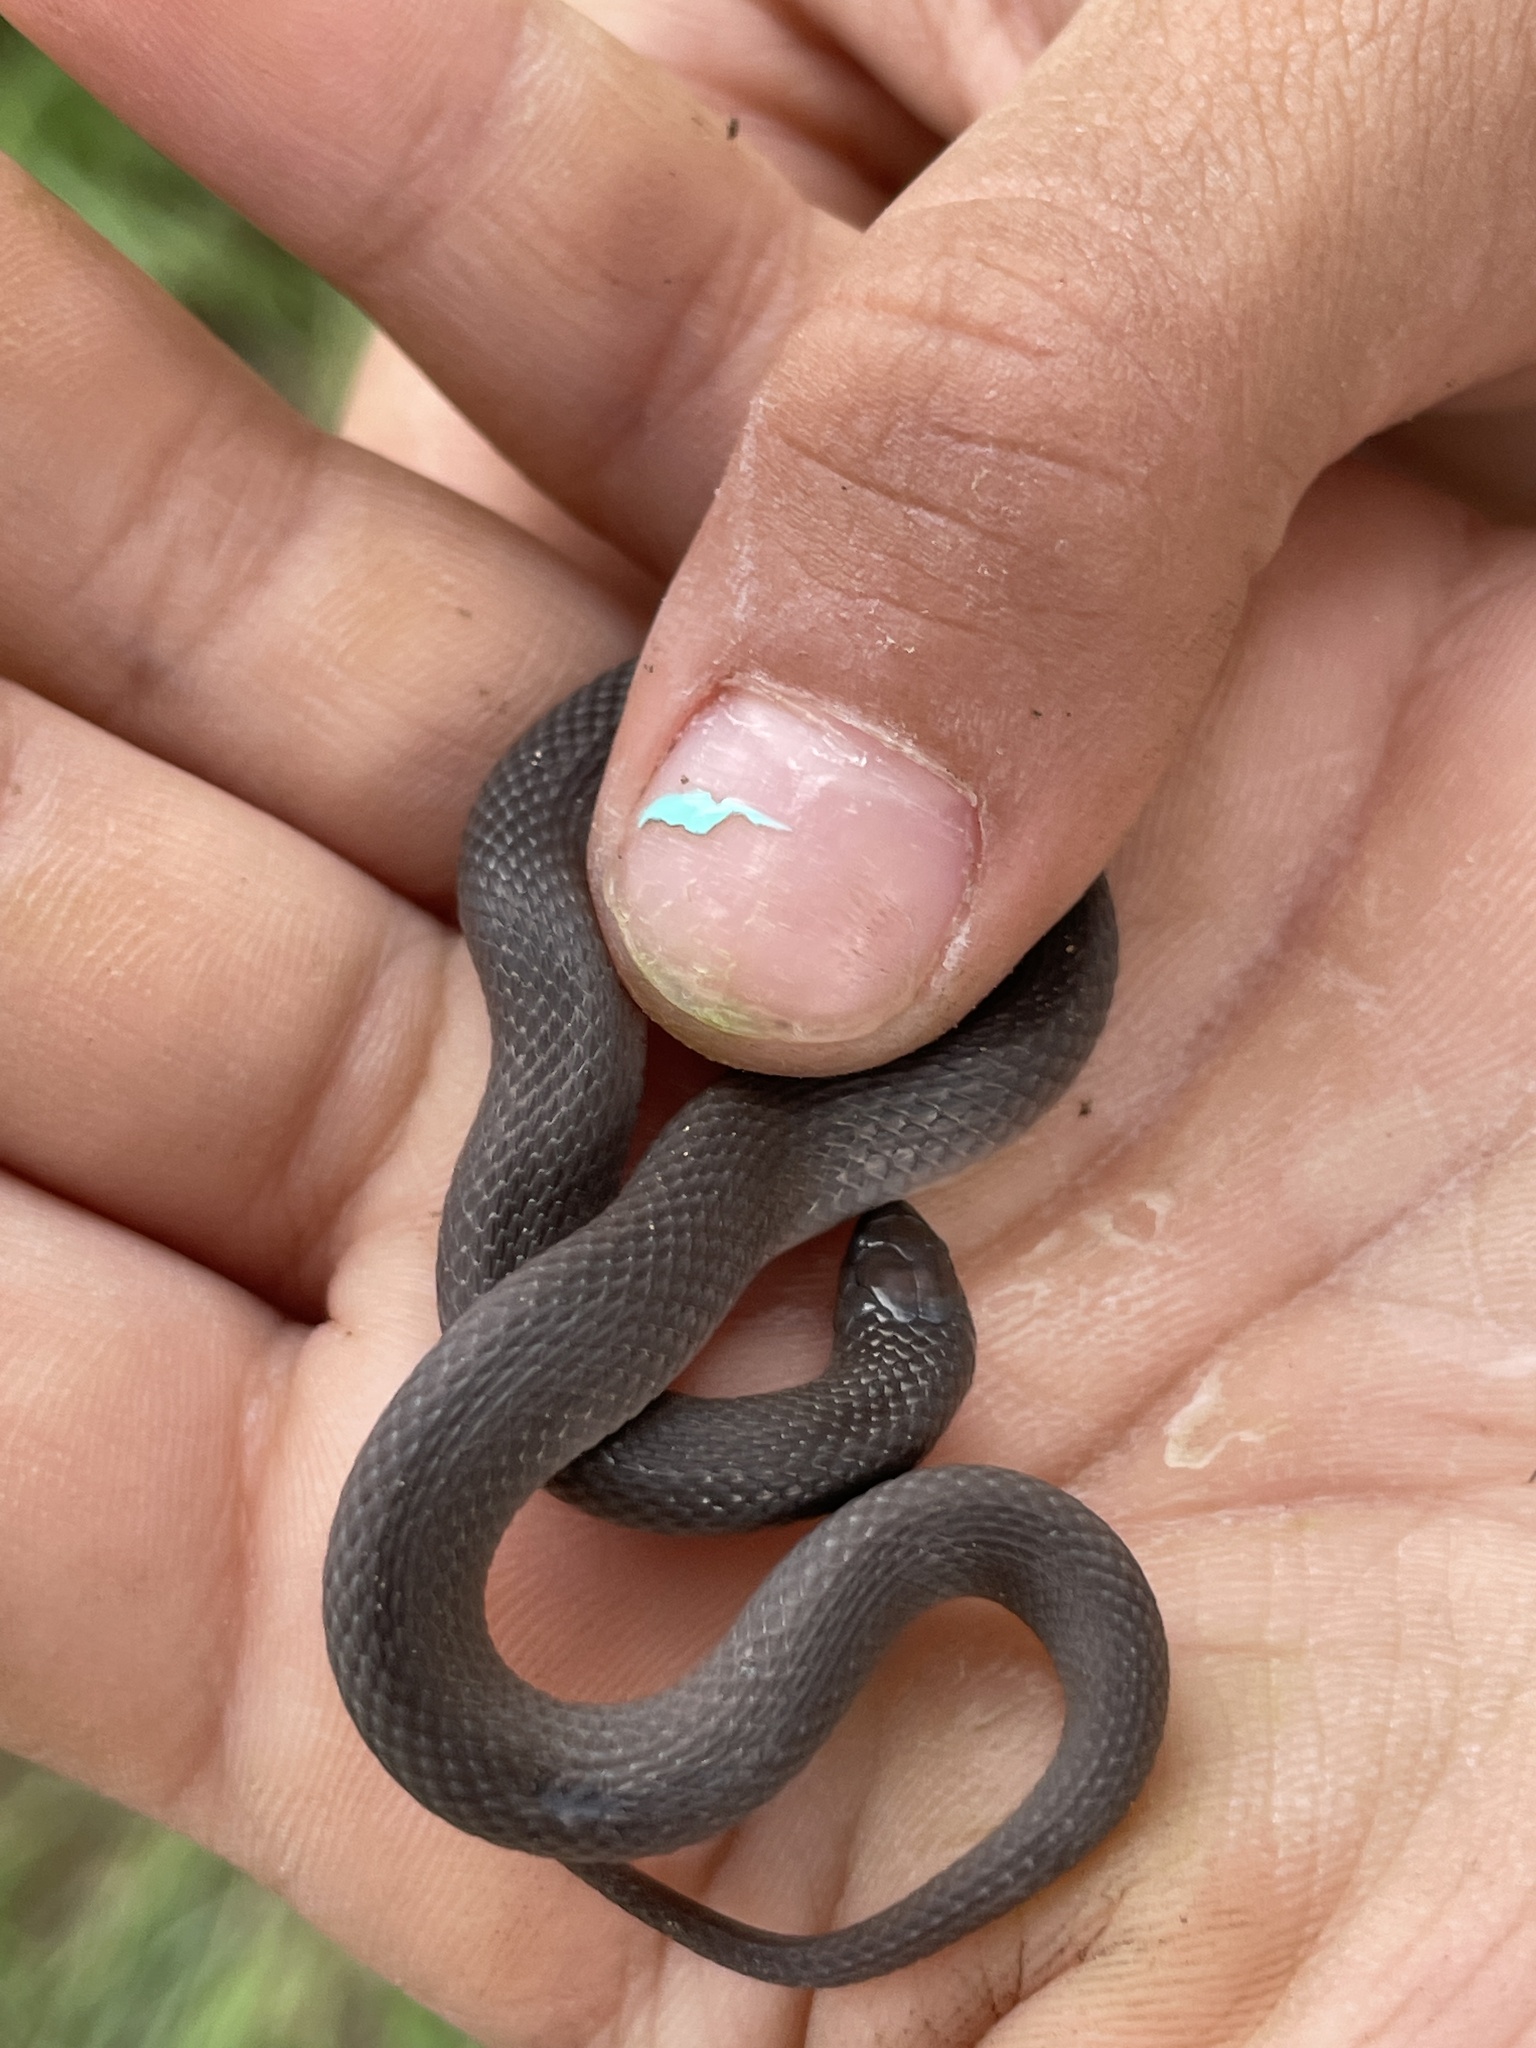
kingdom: Animalia
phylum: Chordata
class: Squamata
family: Colubridae
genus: Haldea
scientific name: Haldea striatula
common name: Rough earth snake
